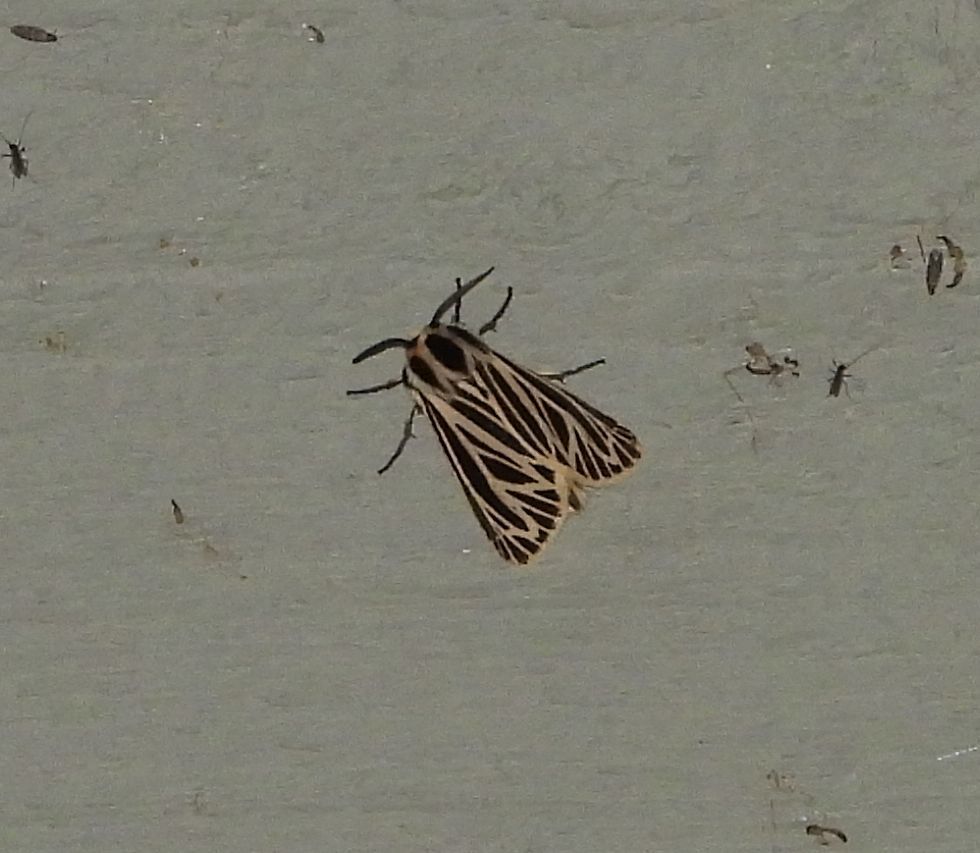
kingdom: Animalia
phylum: Arthropoda
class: Insecta
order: Lepidoptera
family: Erebidae
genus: Grammia
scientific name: Grammia virguncula
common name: Little tiger moth
